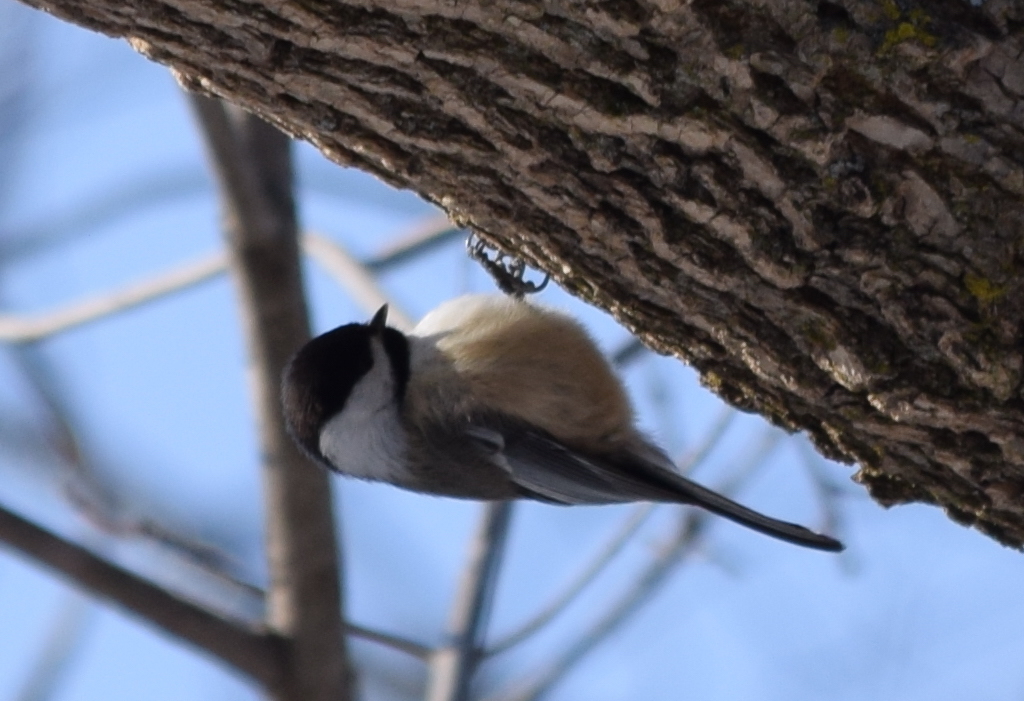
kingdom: Animalia
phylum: Chordata
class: Aves
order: Passeriformes
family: Paridae
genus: Poecile
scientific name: Poecile atricapillus
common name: Black-capped chickadee
